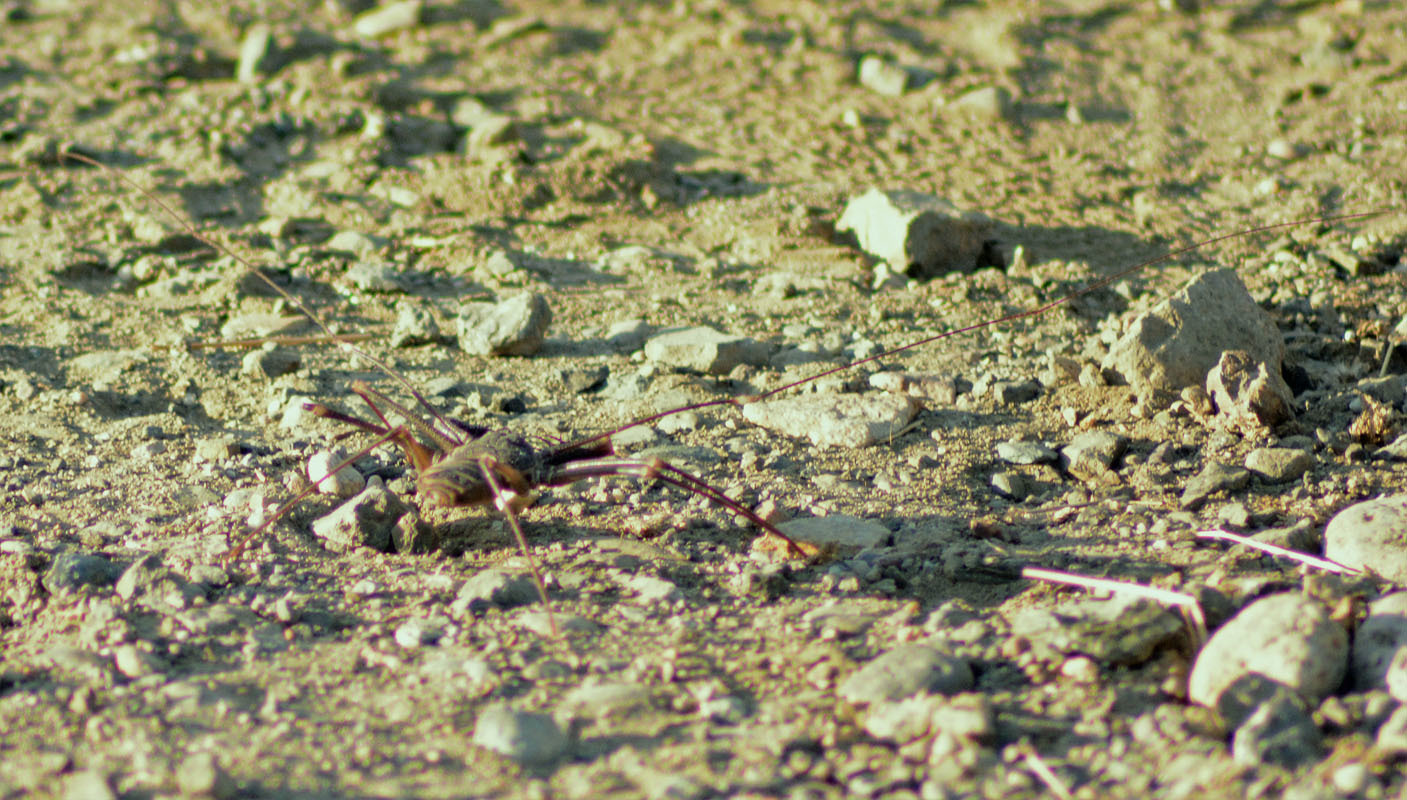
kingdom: Animalia
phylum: Arthropoda
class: Arachnida
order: Amblypygi
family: Phrynidae
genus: Acanthophrynus
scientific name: Acanthophrynus coronatus
